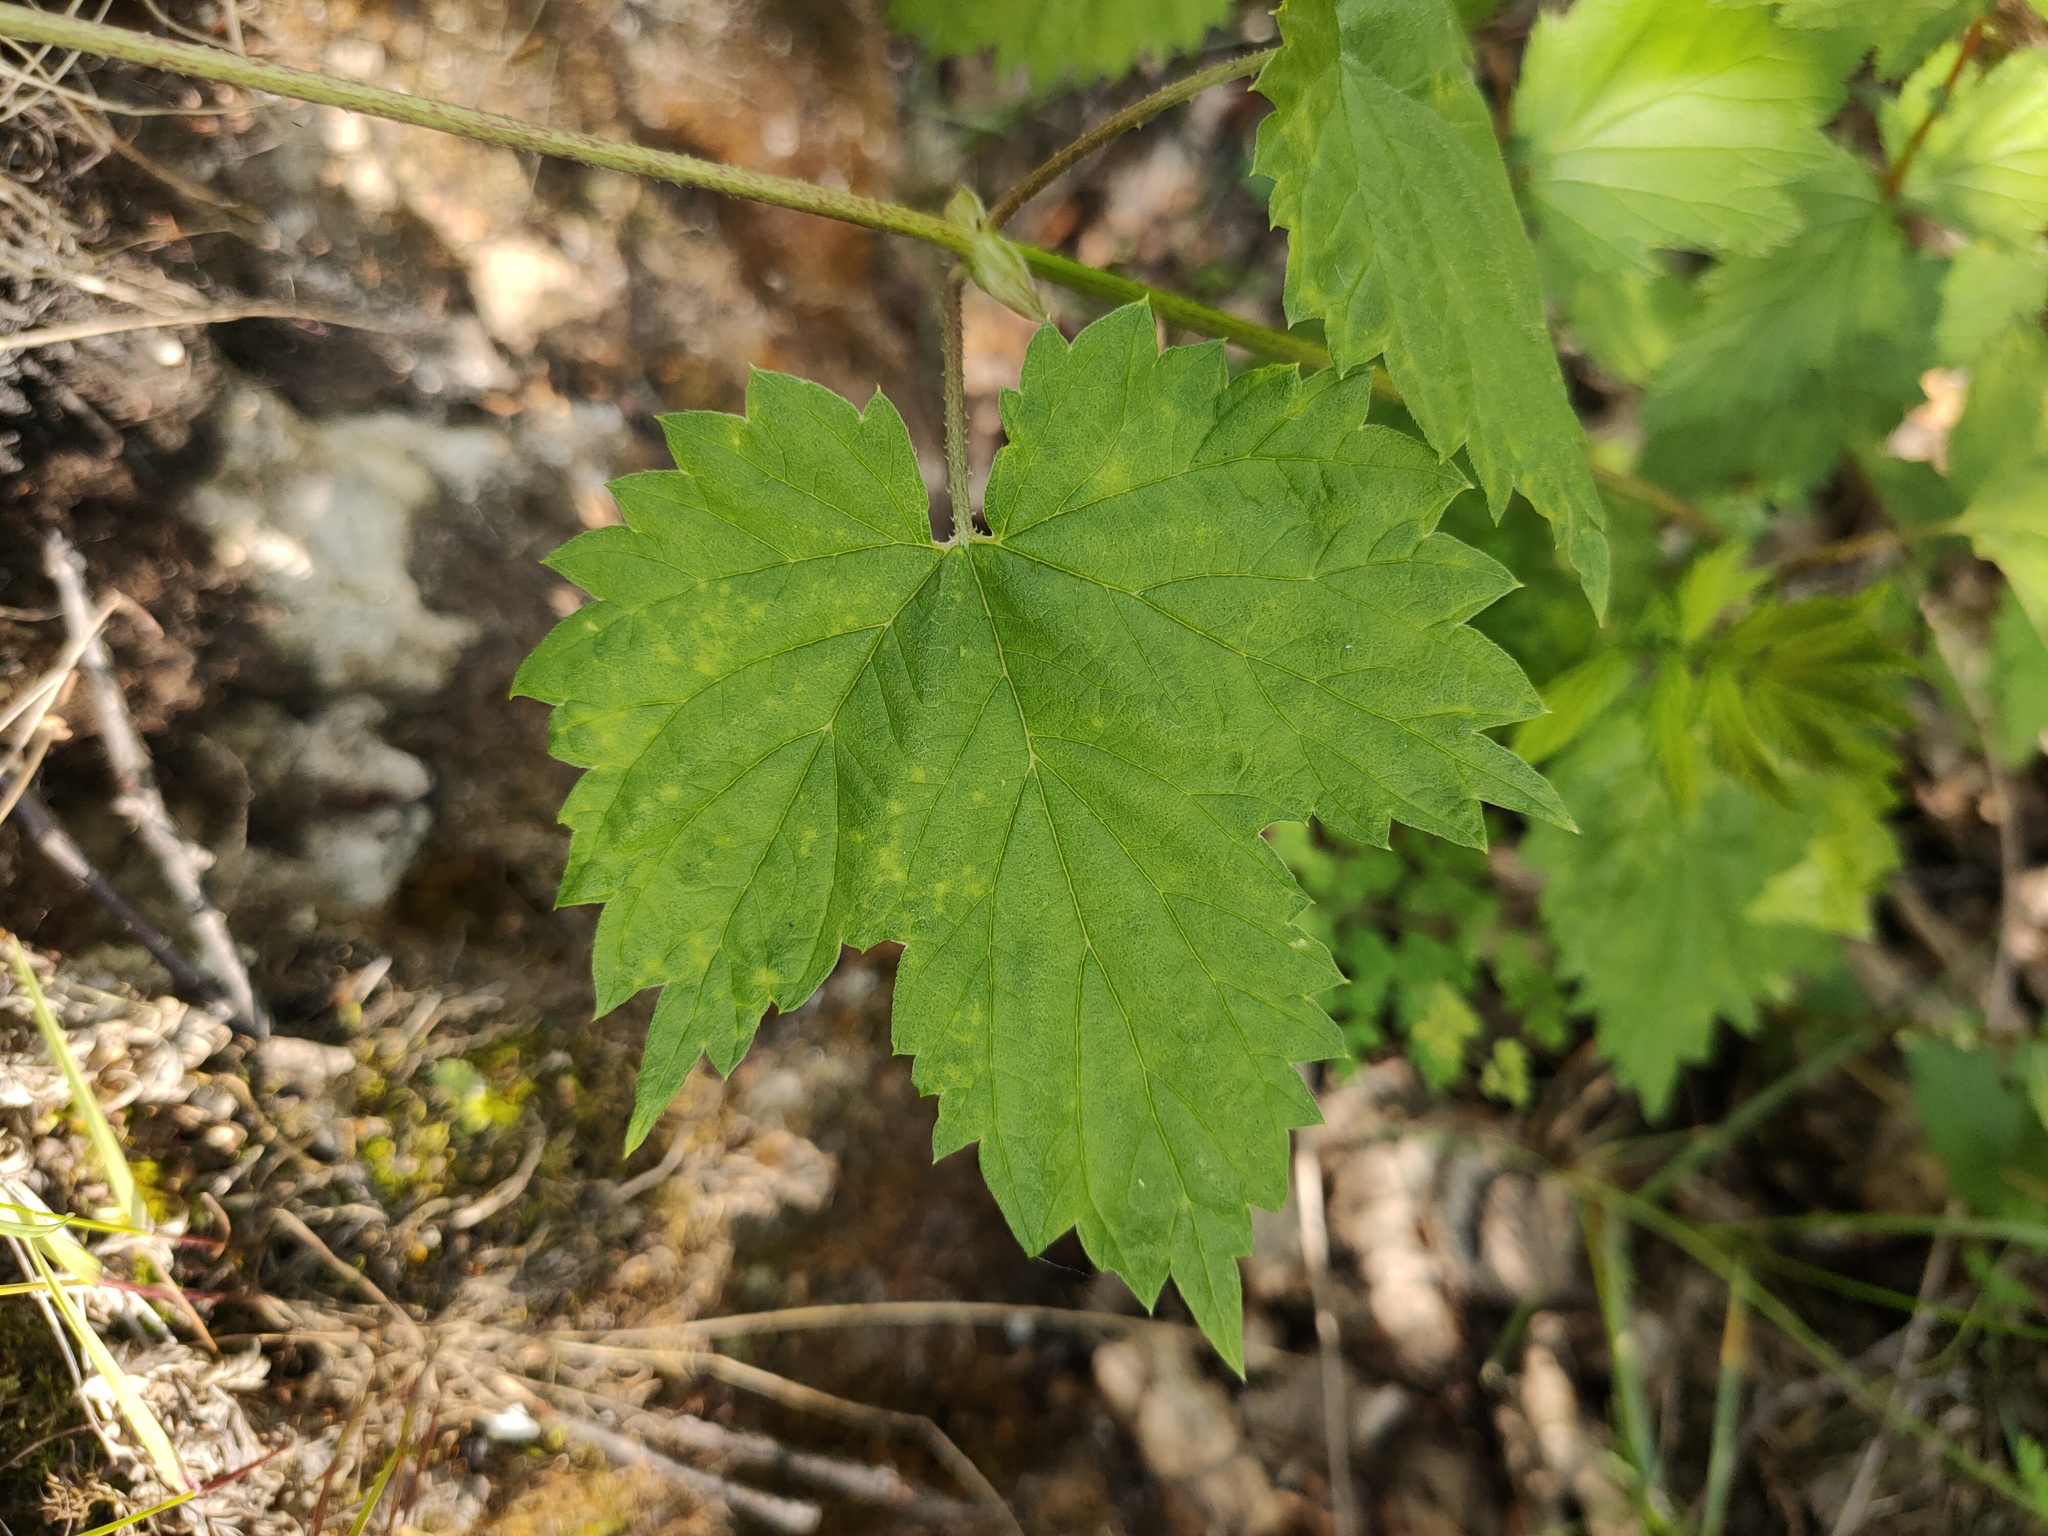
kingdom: Plantae
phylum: Tracheophyta
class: Magnoliopsida
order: Rosales
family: Cannabaceae
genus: Humulus
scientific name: Humulus lupulus
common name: Hop
